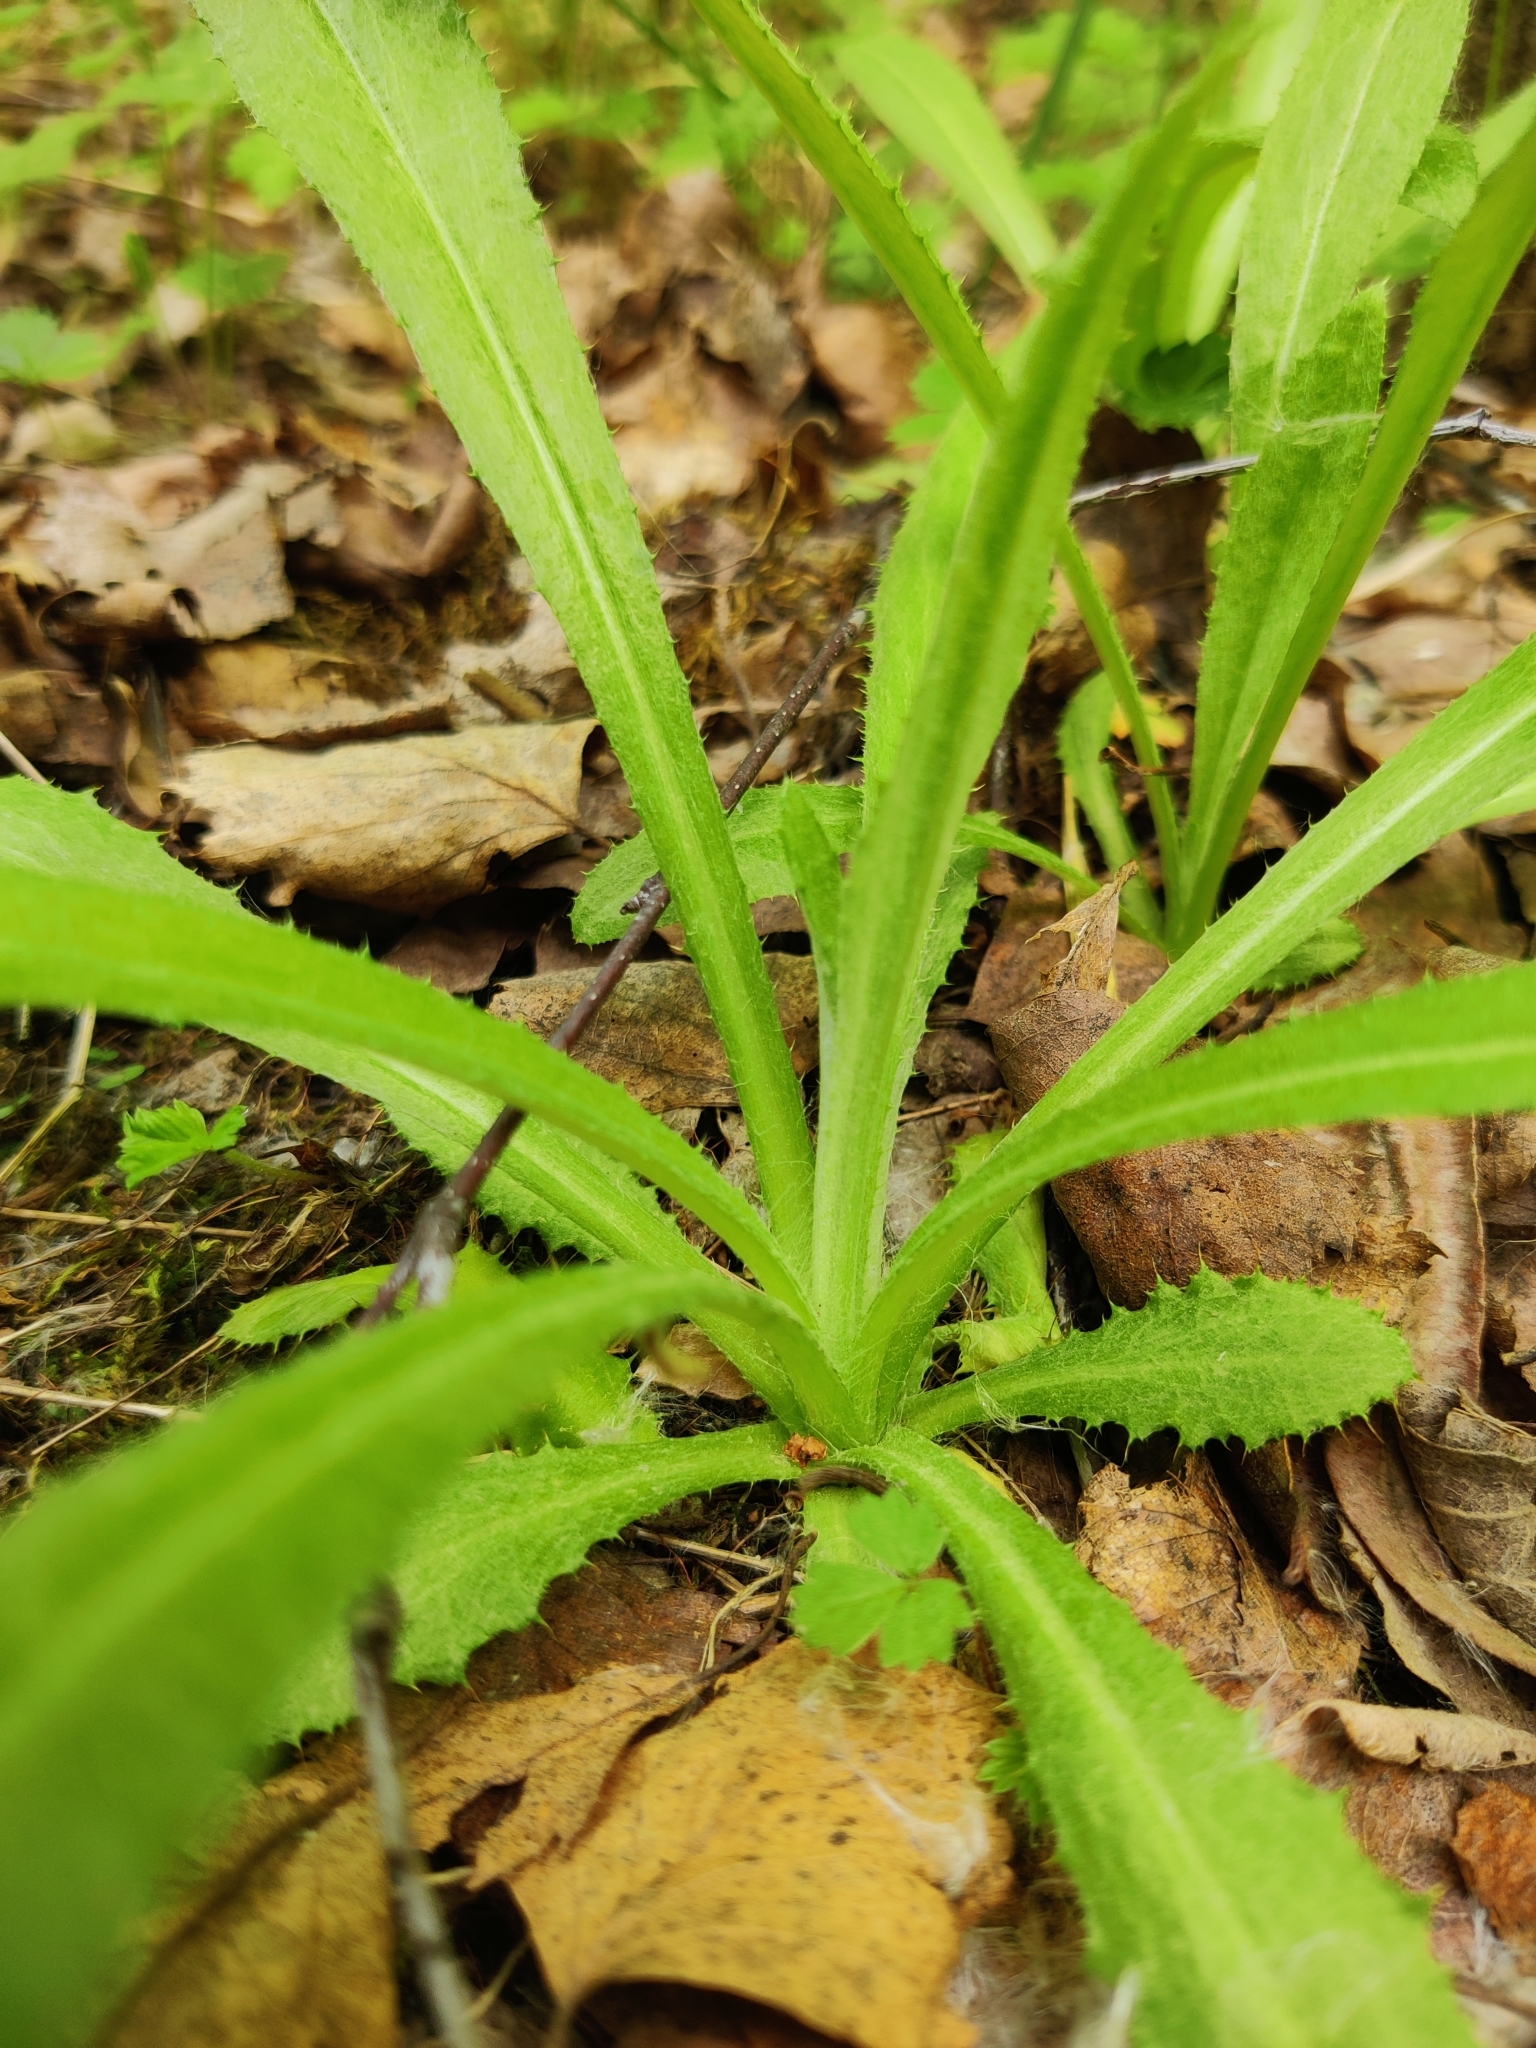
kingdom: Plantae
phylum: Tracheophyta
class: Magnoliopsida
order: Asterales
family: Asteraceae
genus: Carlina
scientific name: Carlina biebersteinii
